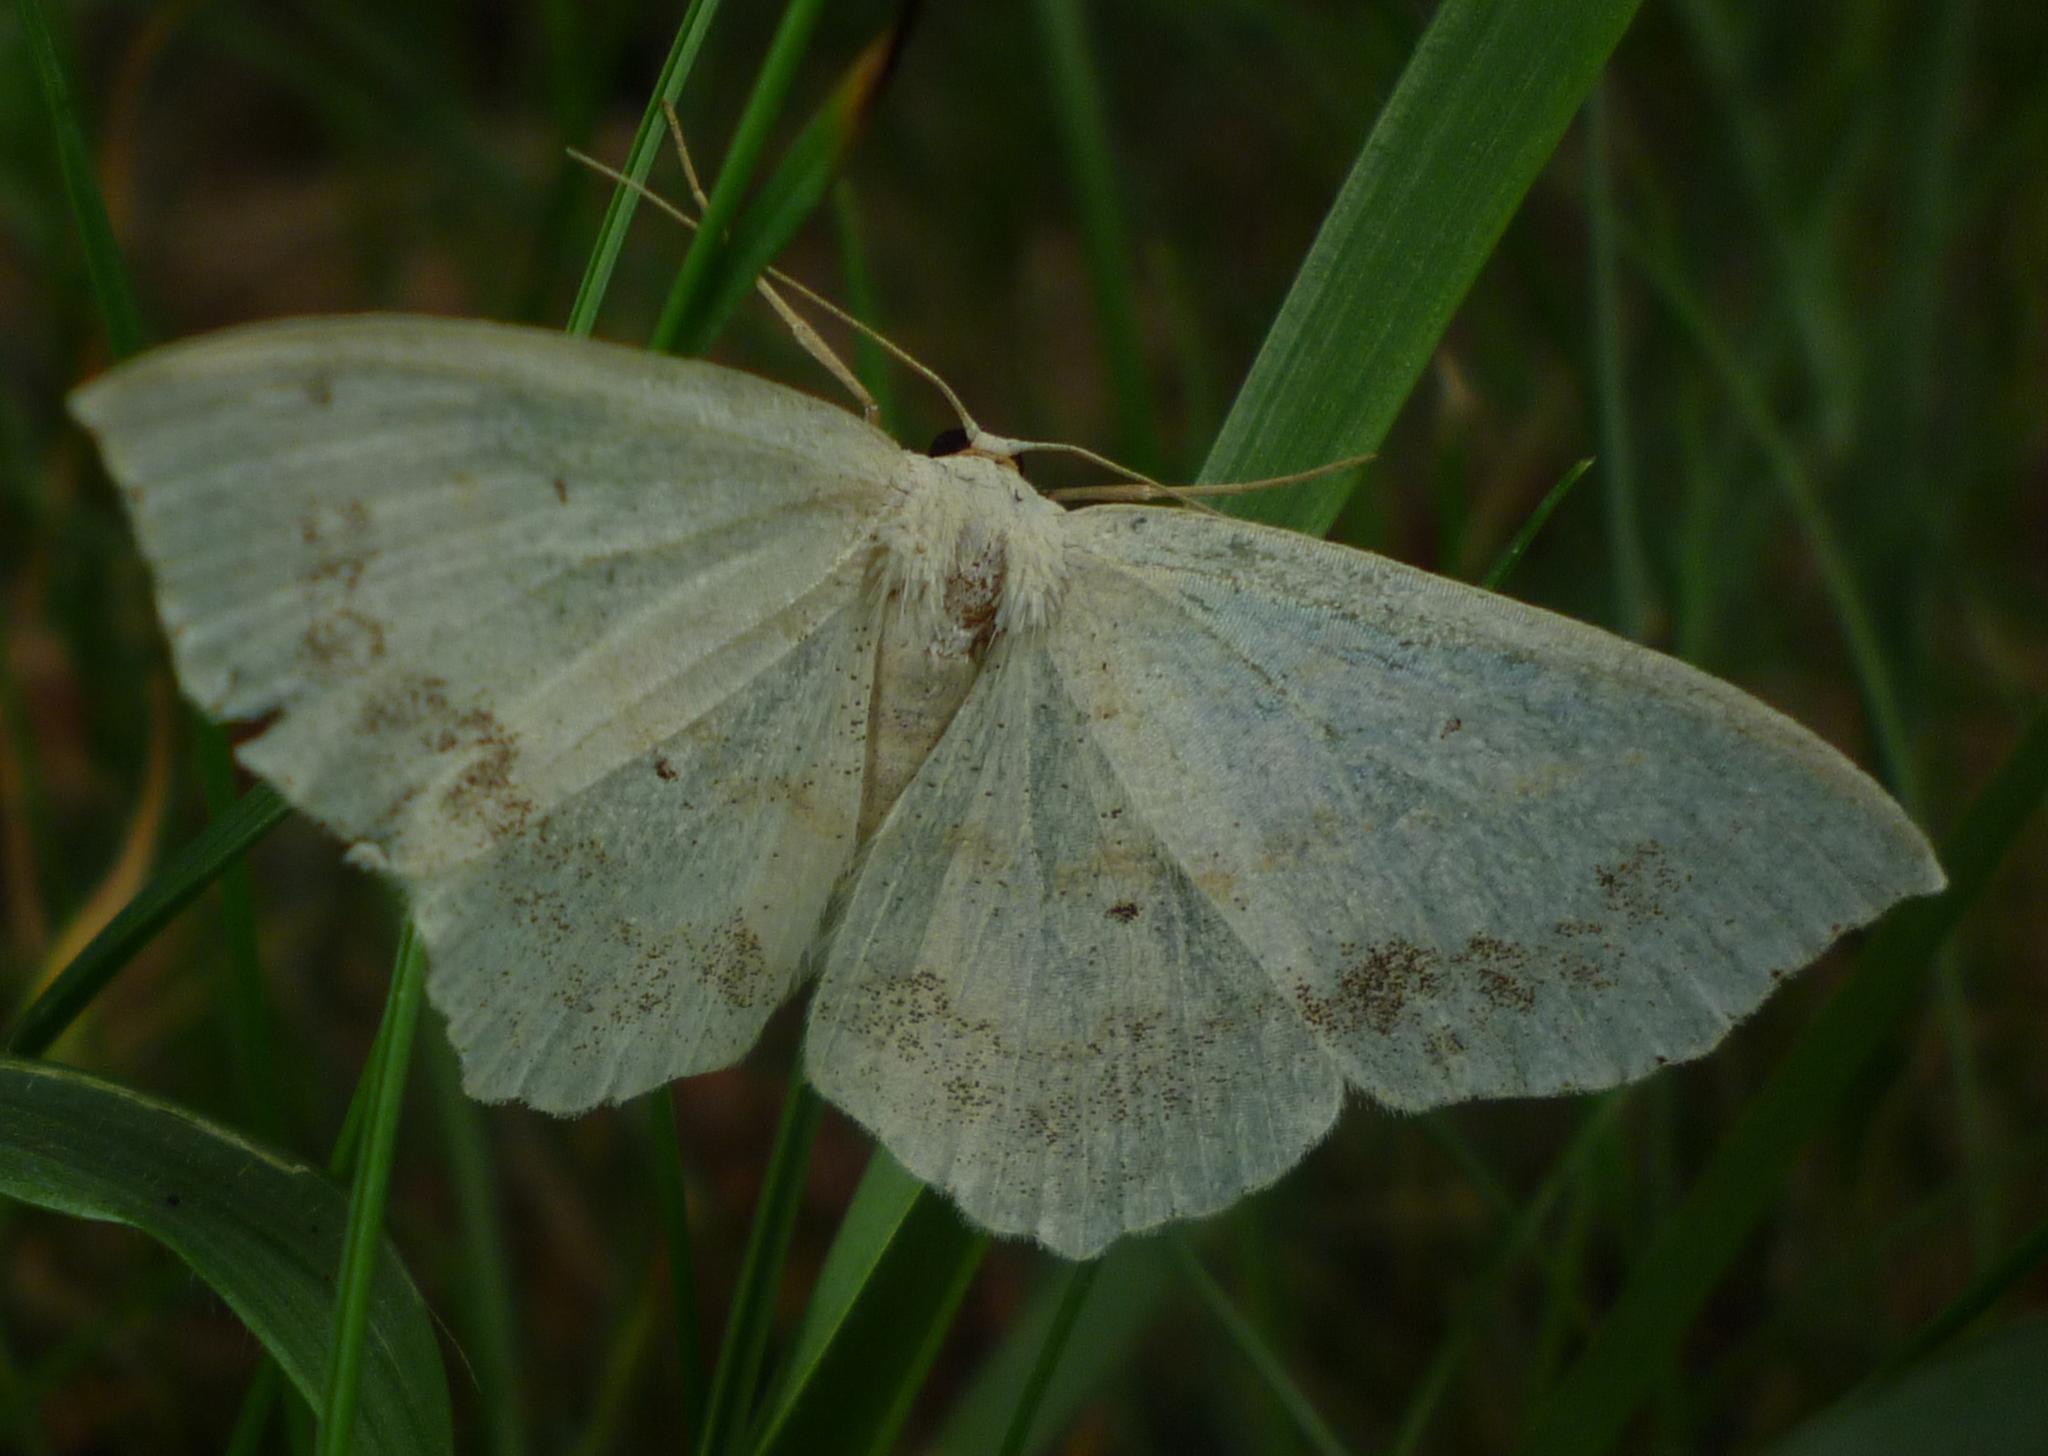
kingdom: Animalia
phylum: Arthropoda
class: Insecta
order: Lepidoptera
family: Geometridae
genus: Scopula
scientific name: Scopula limboundata
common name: Large lace border
